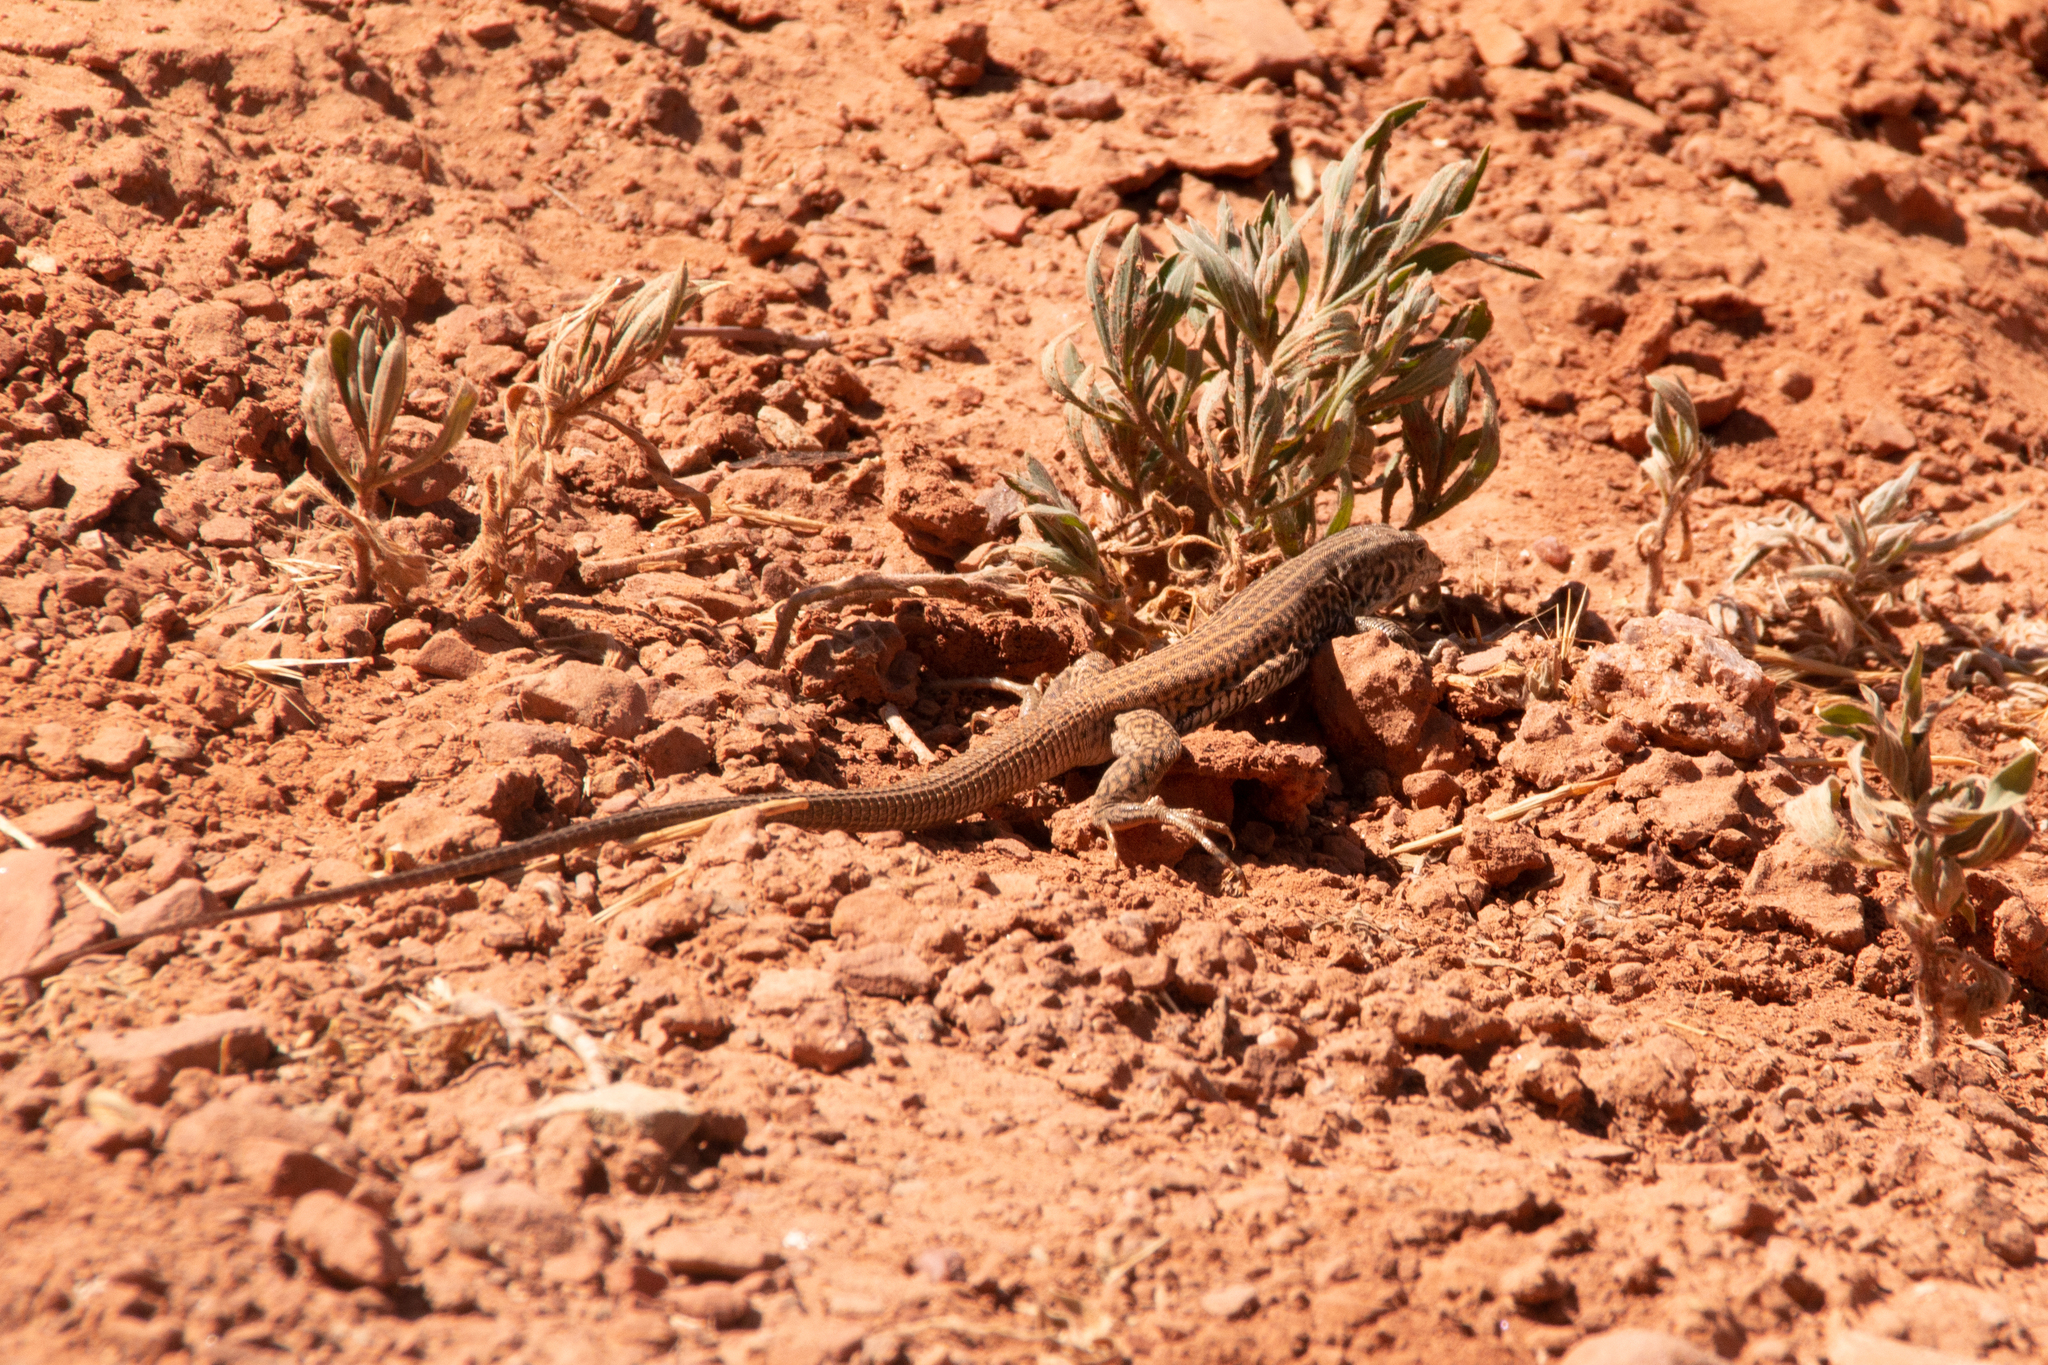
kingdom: Animalia
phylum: Chordata
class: Squamata
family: Teiidae
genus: Aspidoscelis
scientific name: Aspidoscelis tigris
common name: Tiger whiptail
